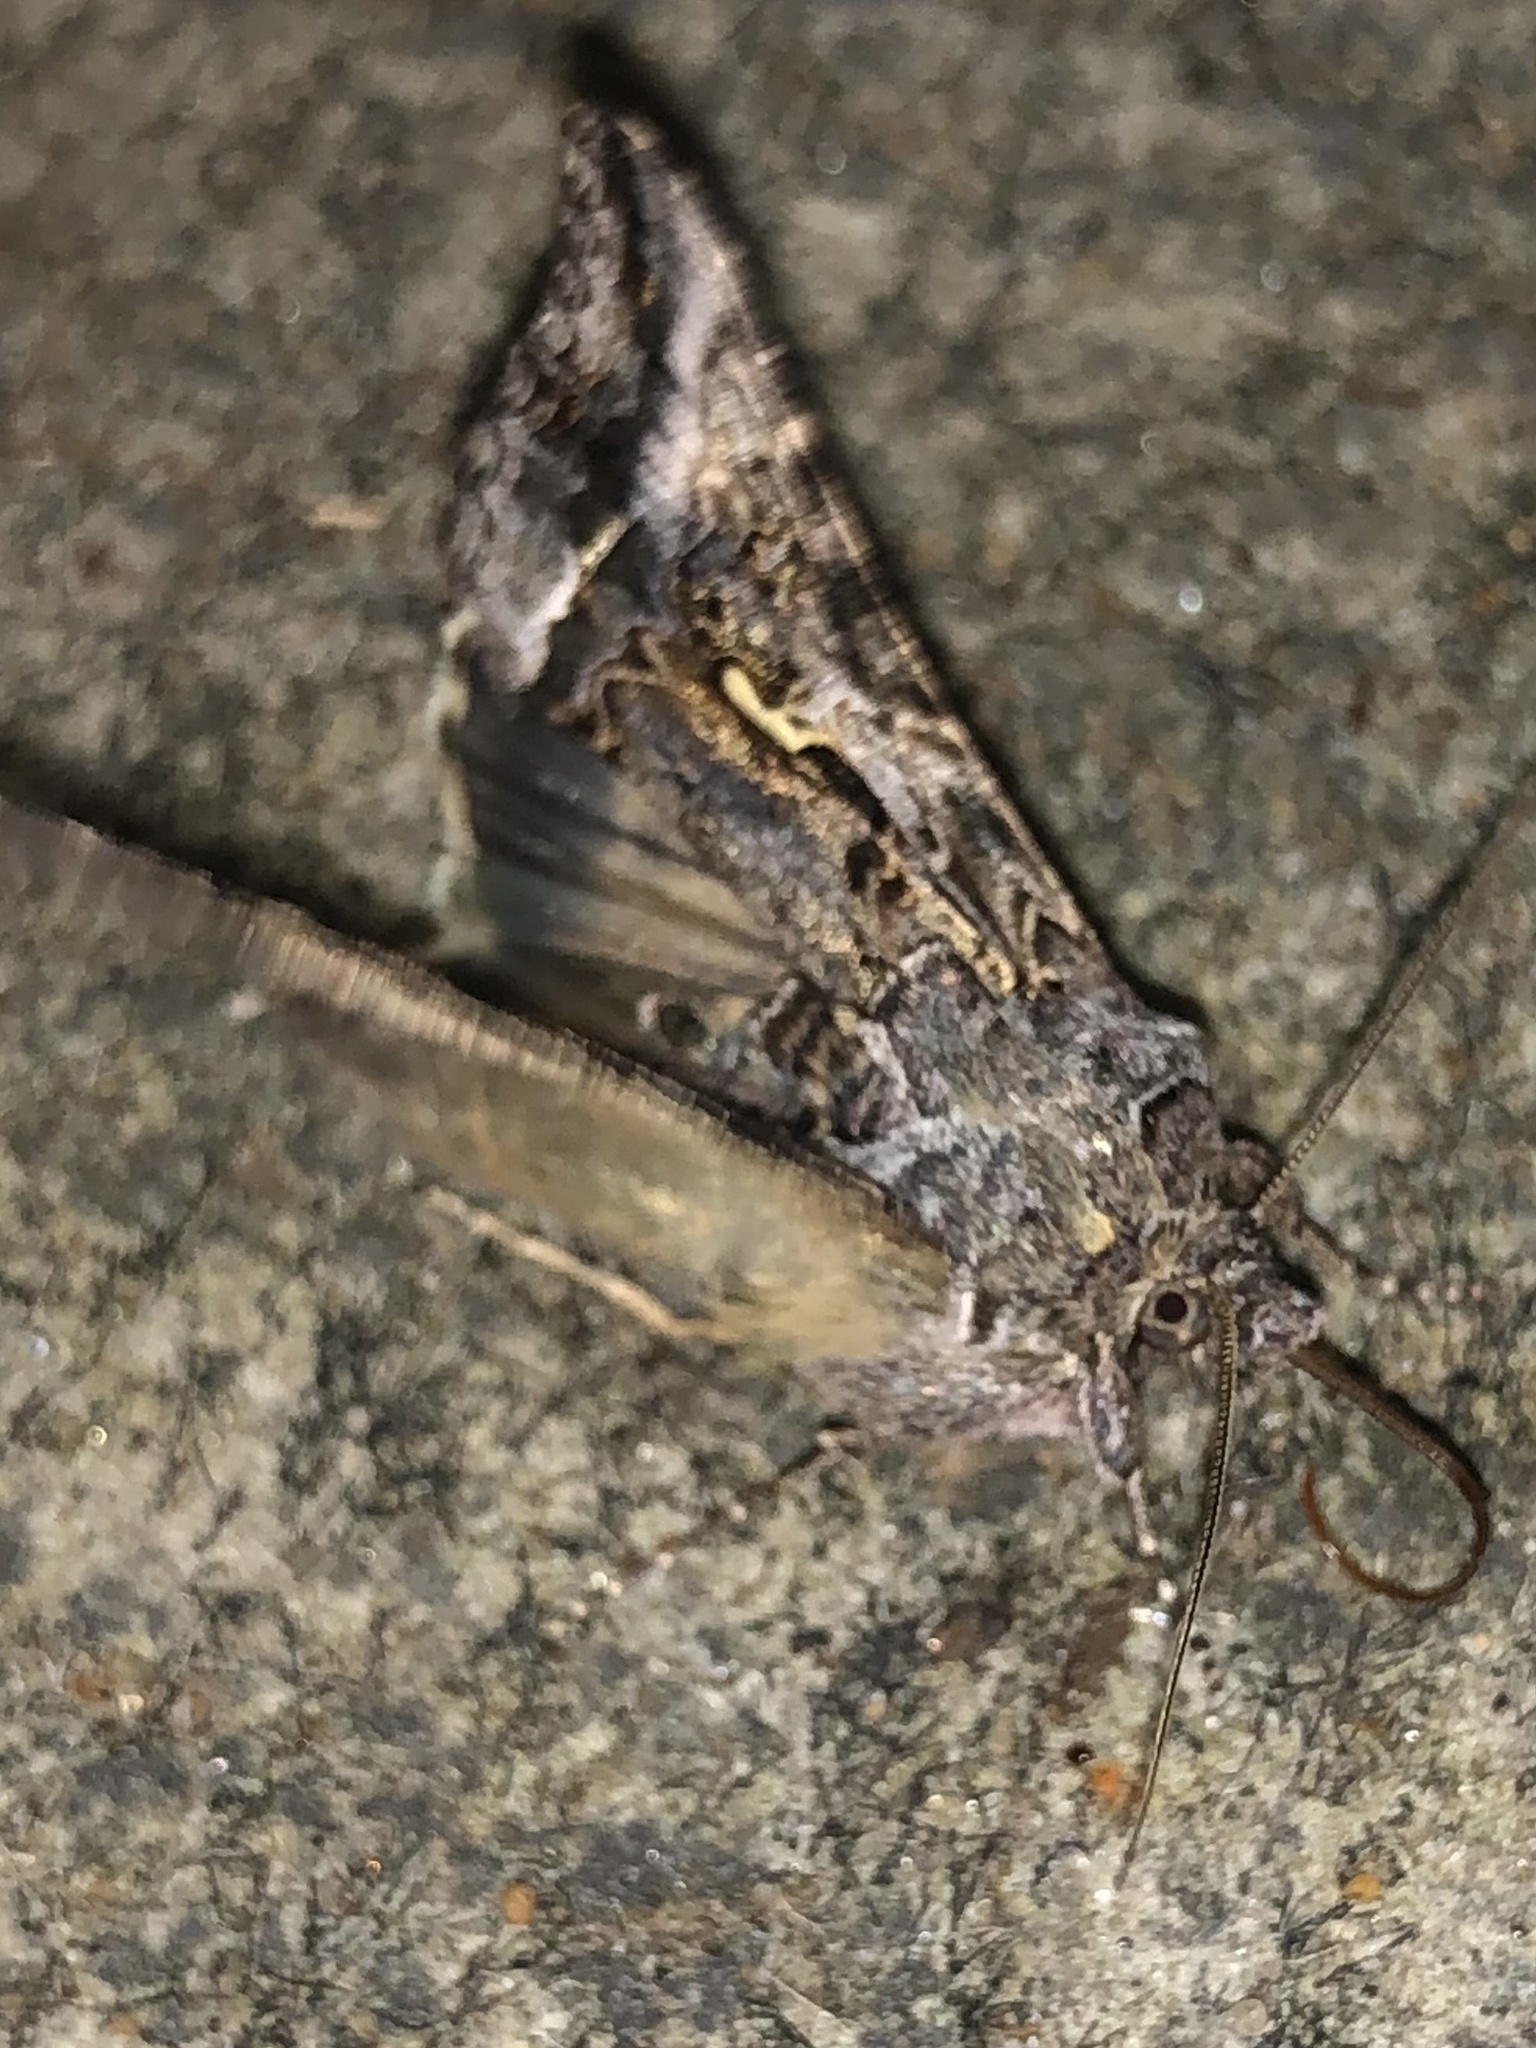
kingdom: Animalia
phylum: Arthropoda
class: Insecta
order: Lepidoptera
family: Noctuidae
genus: Autographa
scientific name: Autographa californica
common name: Alfalfa looper
